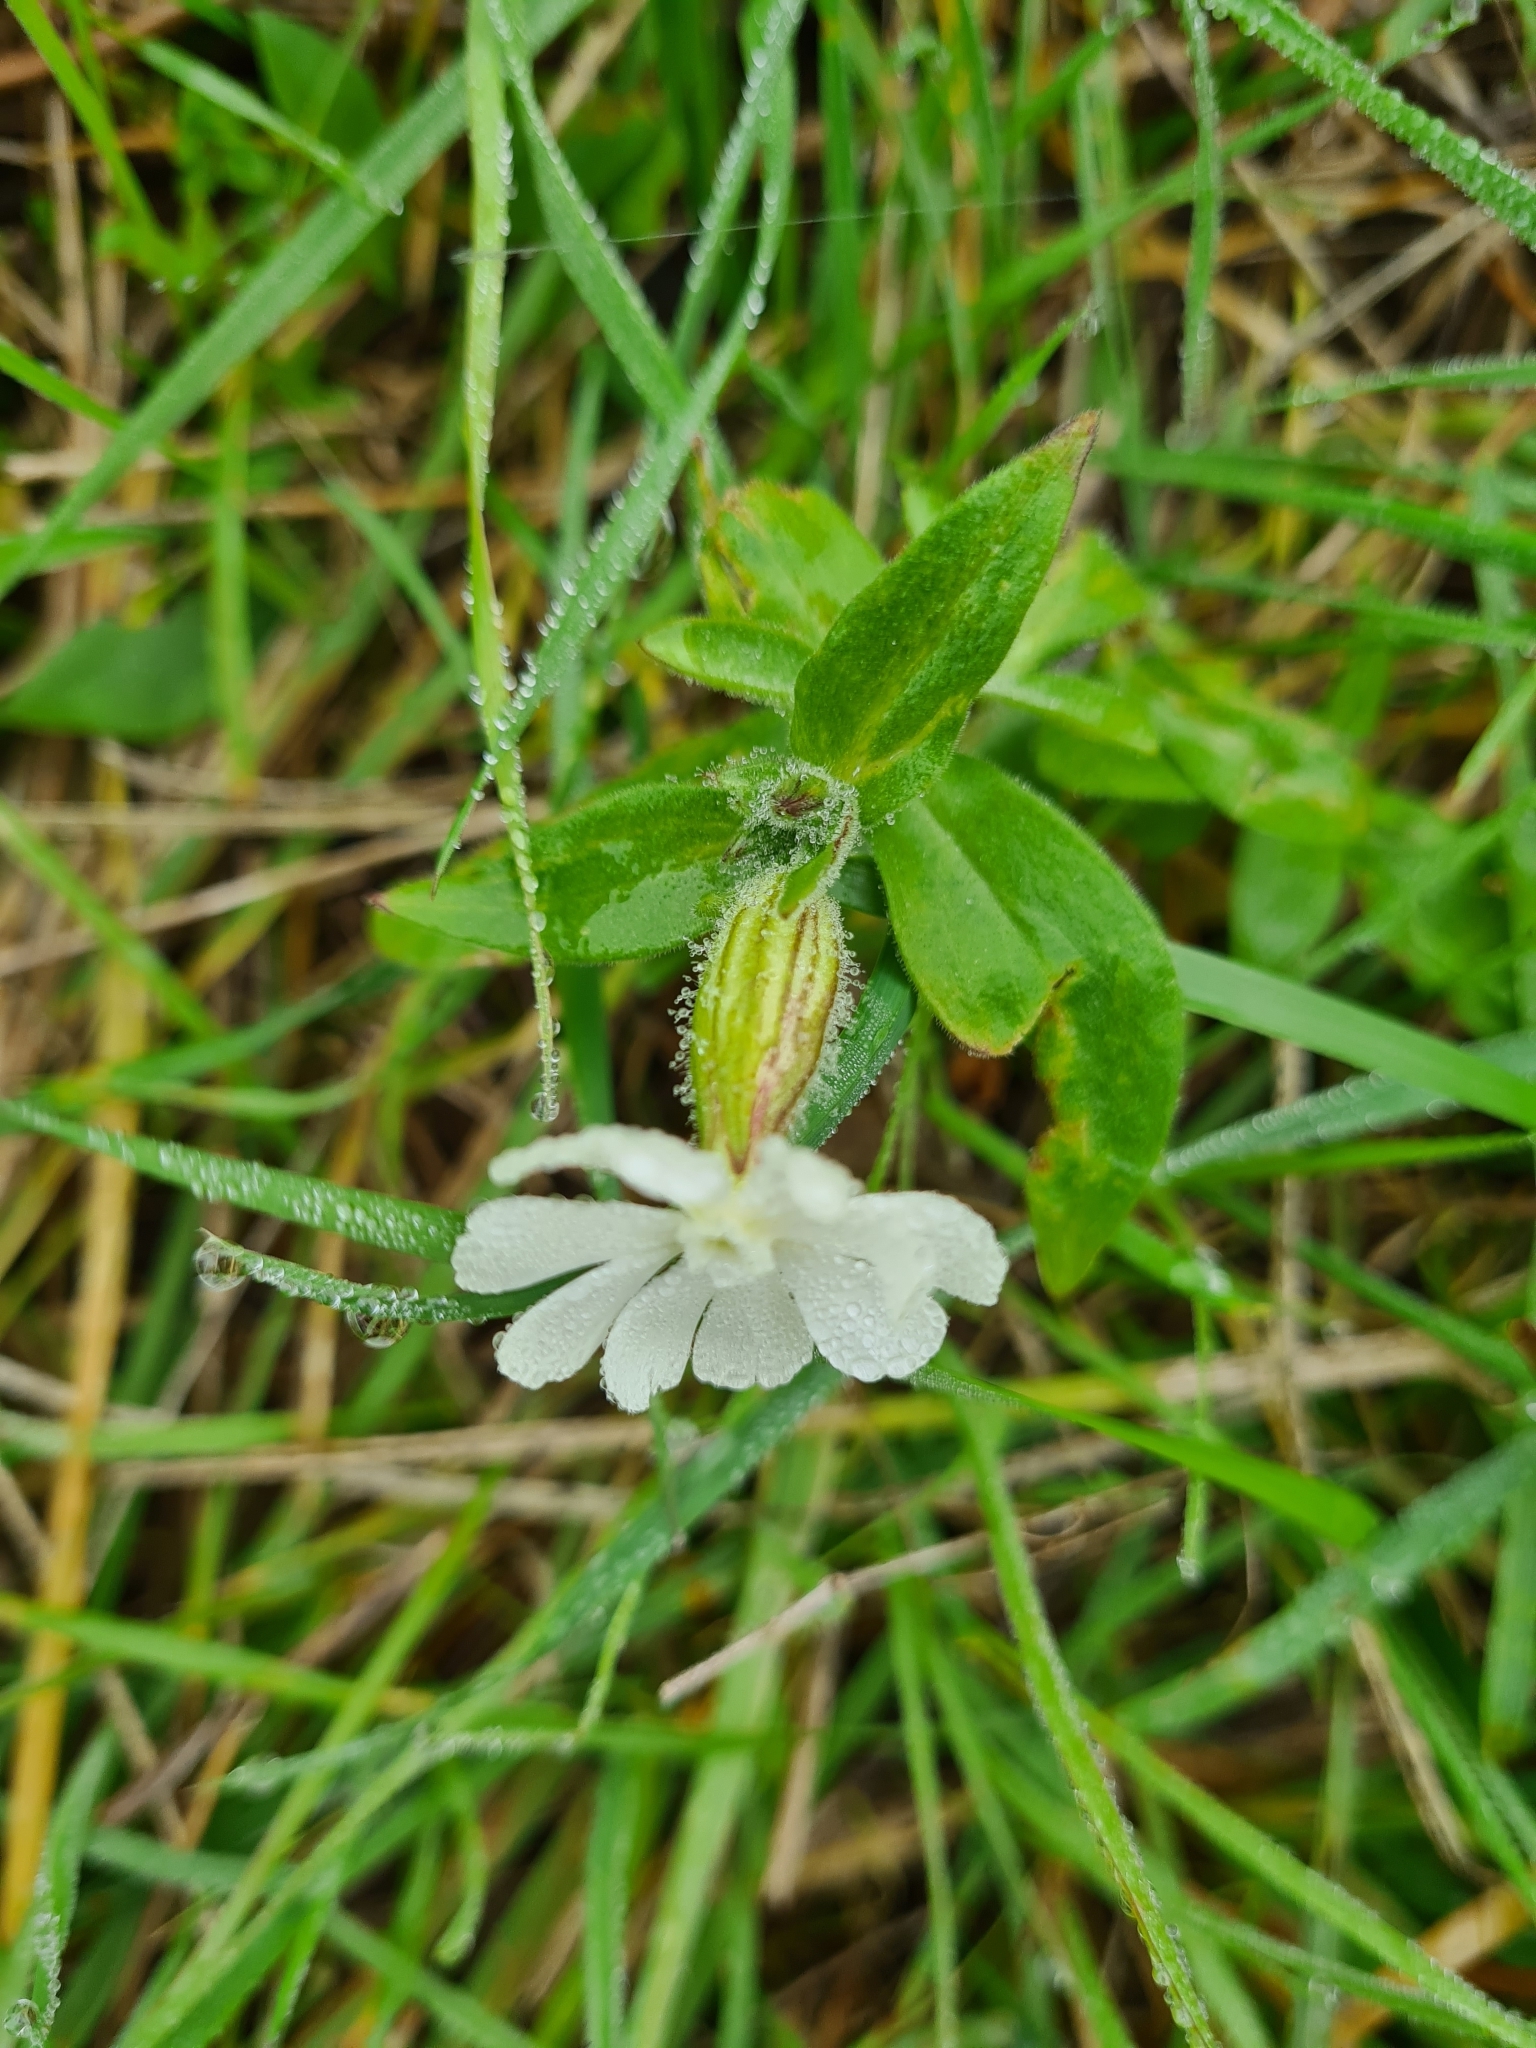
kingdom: Plantae
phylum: Tracheophyta
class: Magnoliopsida
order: Caryophyllales
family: Caryophyllaceae
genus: Silene
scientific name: Silene latifolia
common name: White campion
